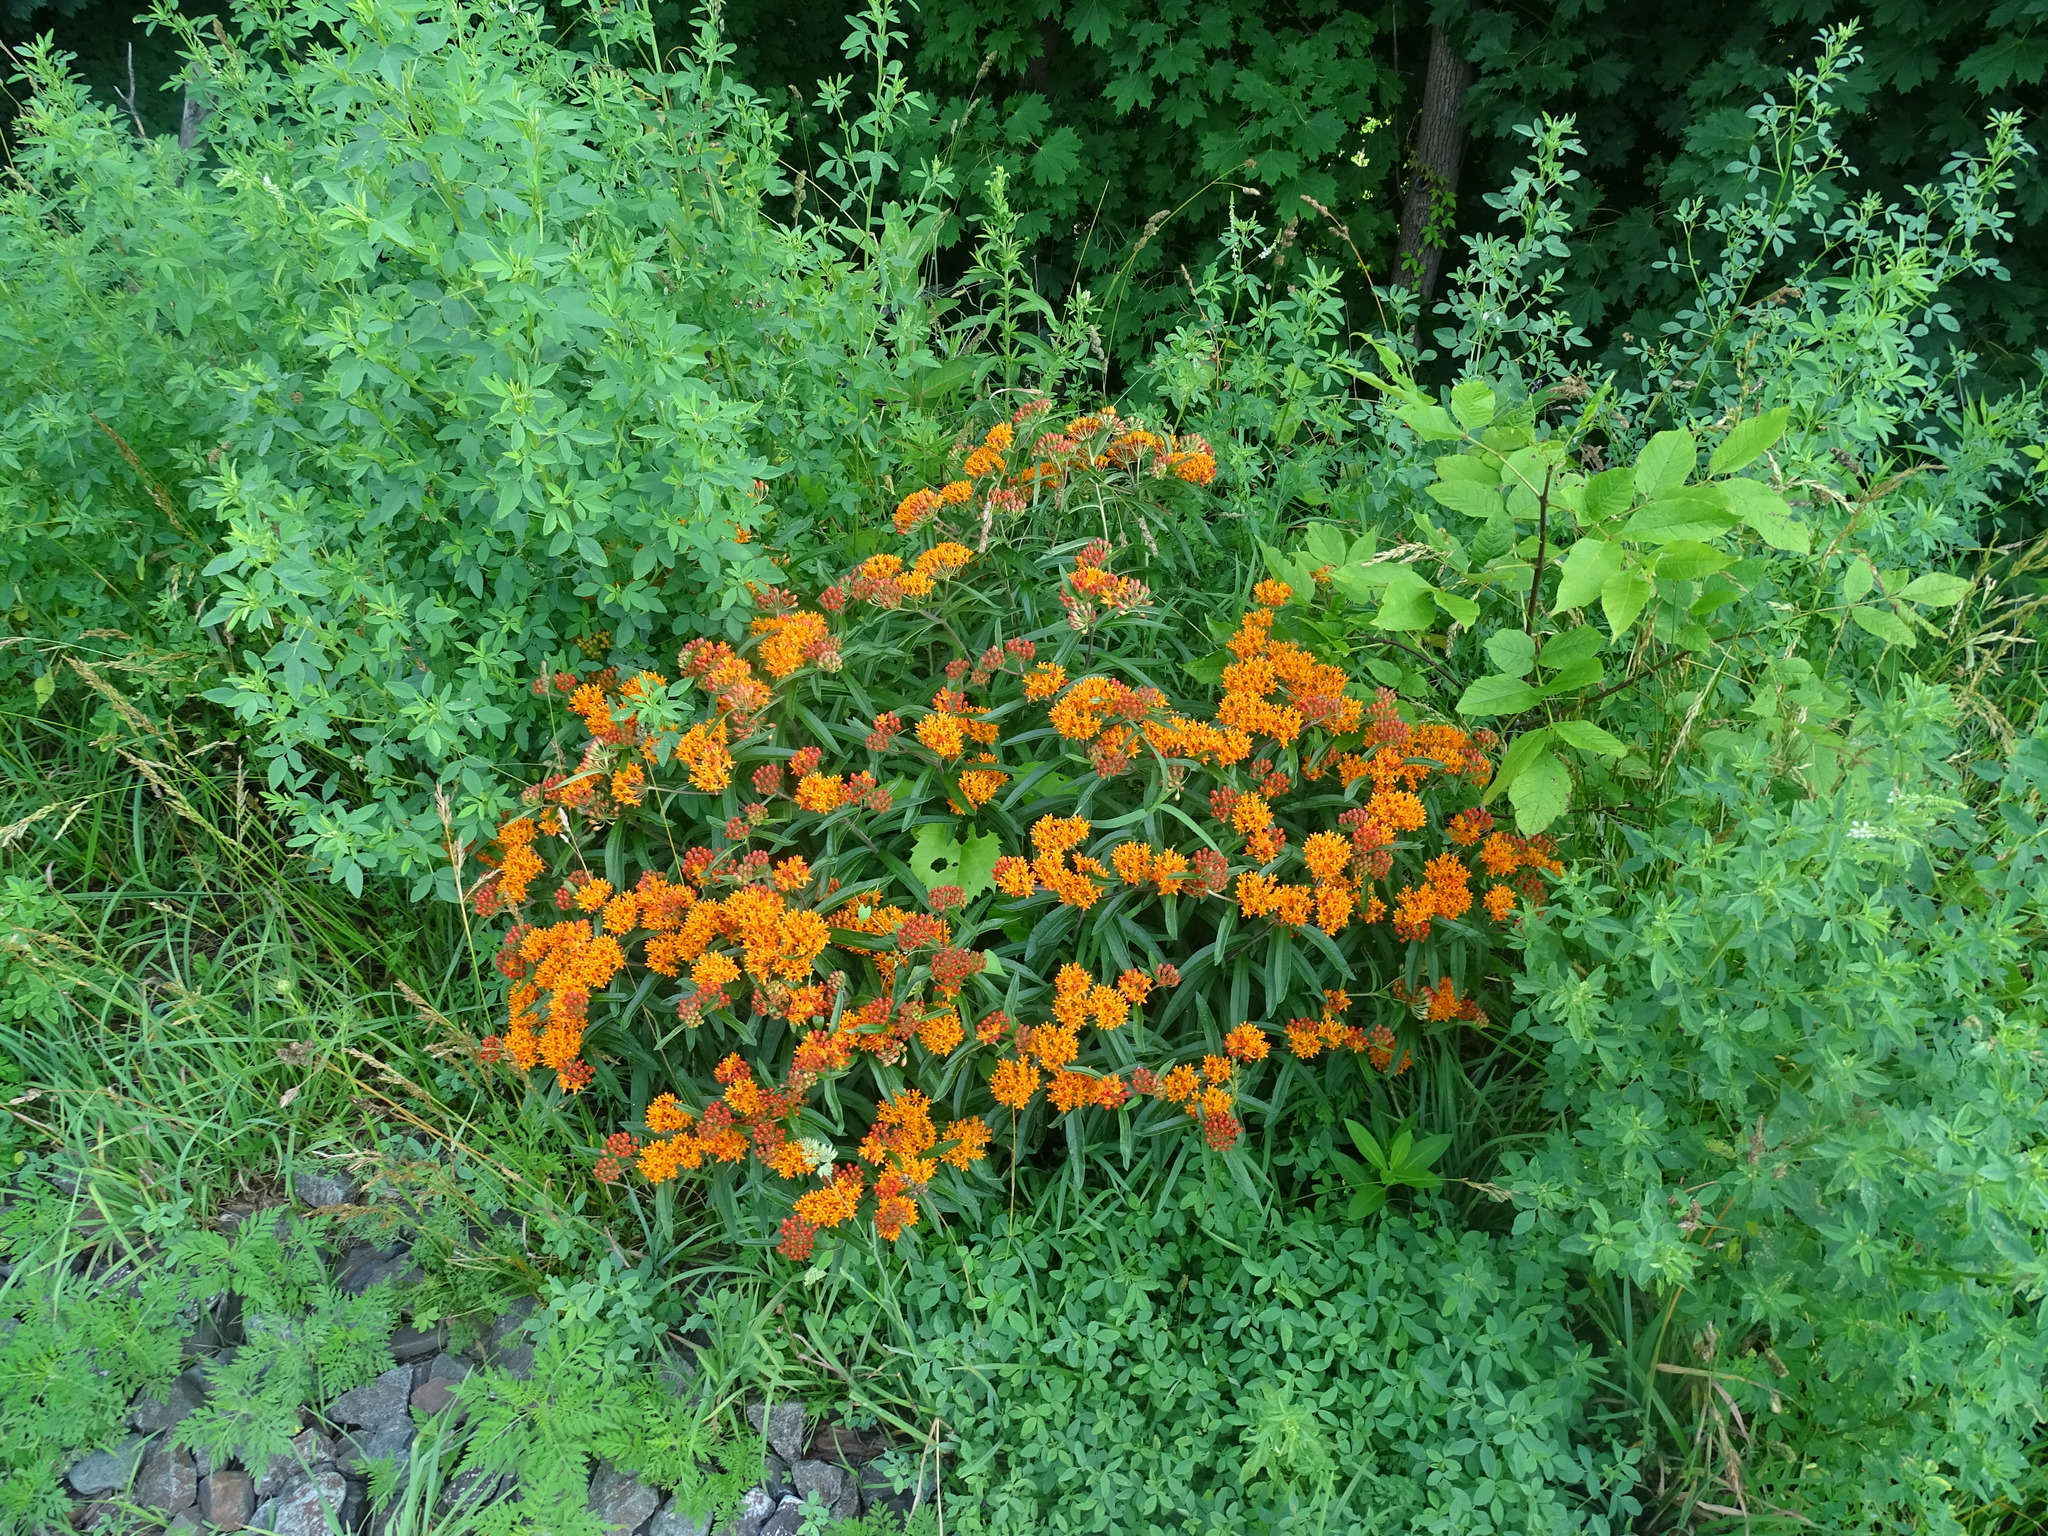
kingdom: Plantae
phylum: Tracheophyta
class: Magnoliopsida
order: Gentianales
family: Apocynaceae
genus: Asclepias
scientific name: Asclepias tuberosa
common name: Butterfly milkweed
